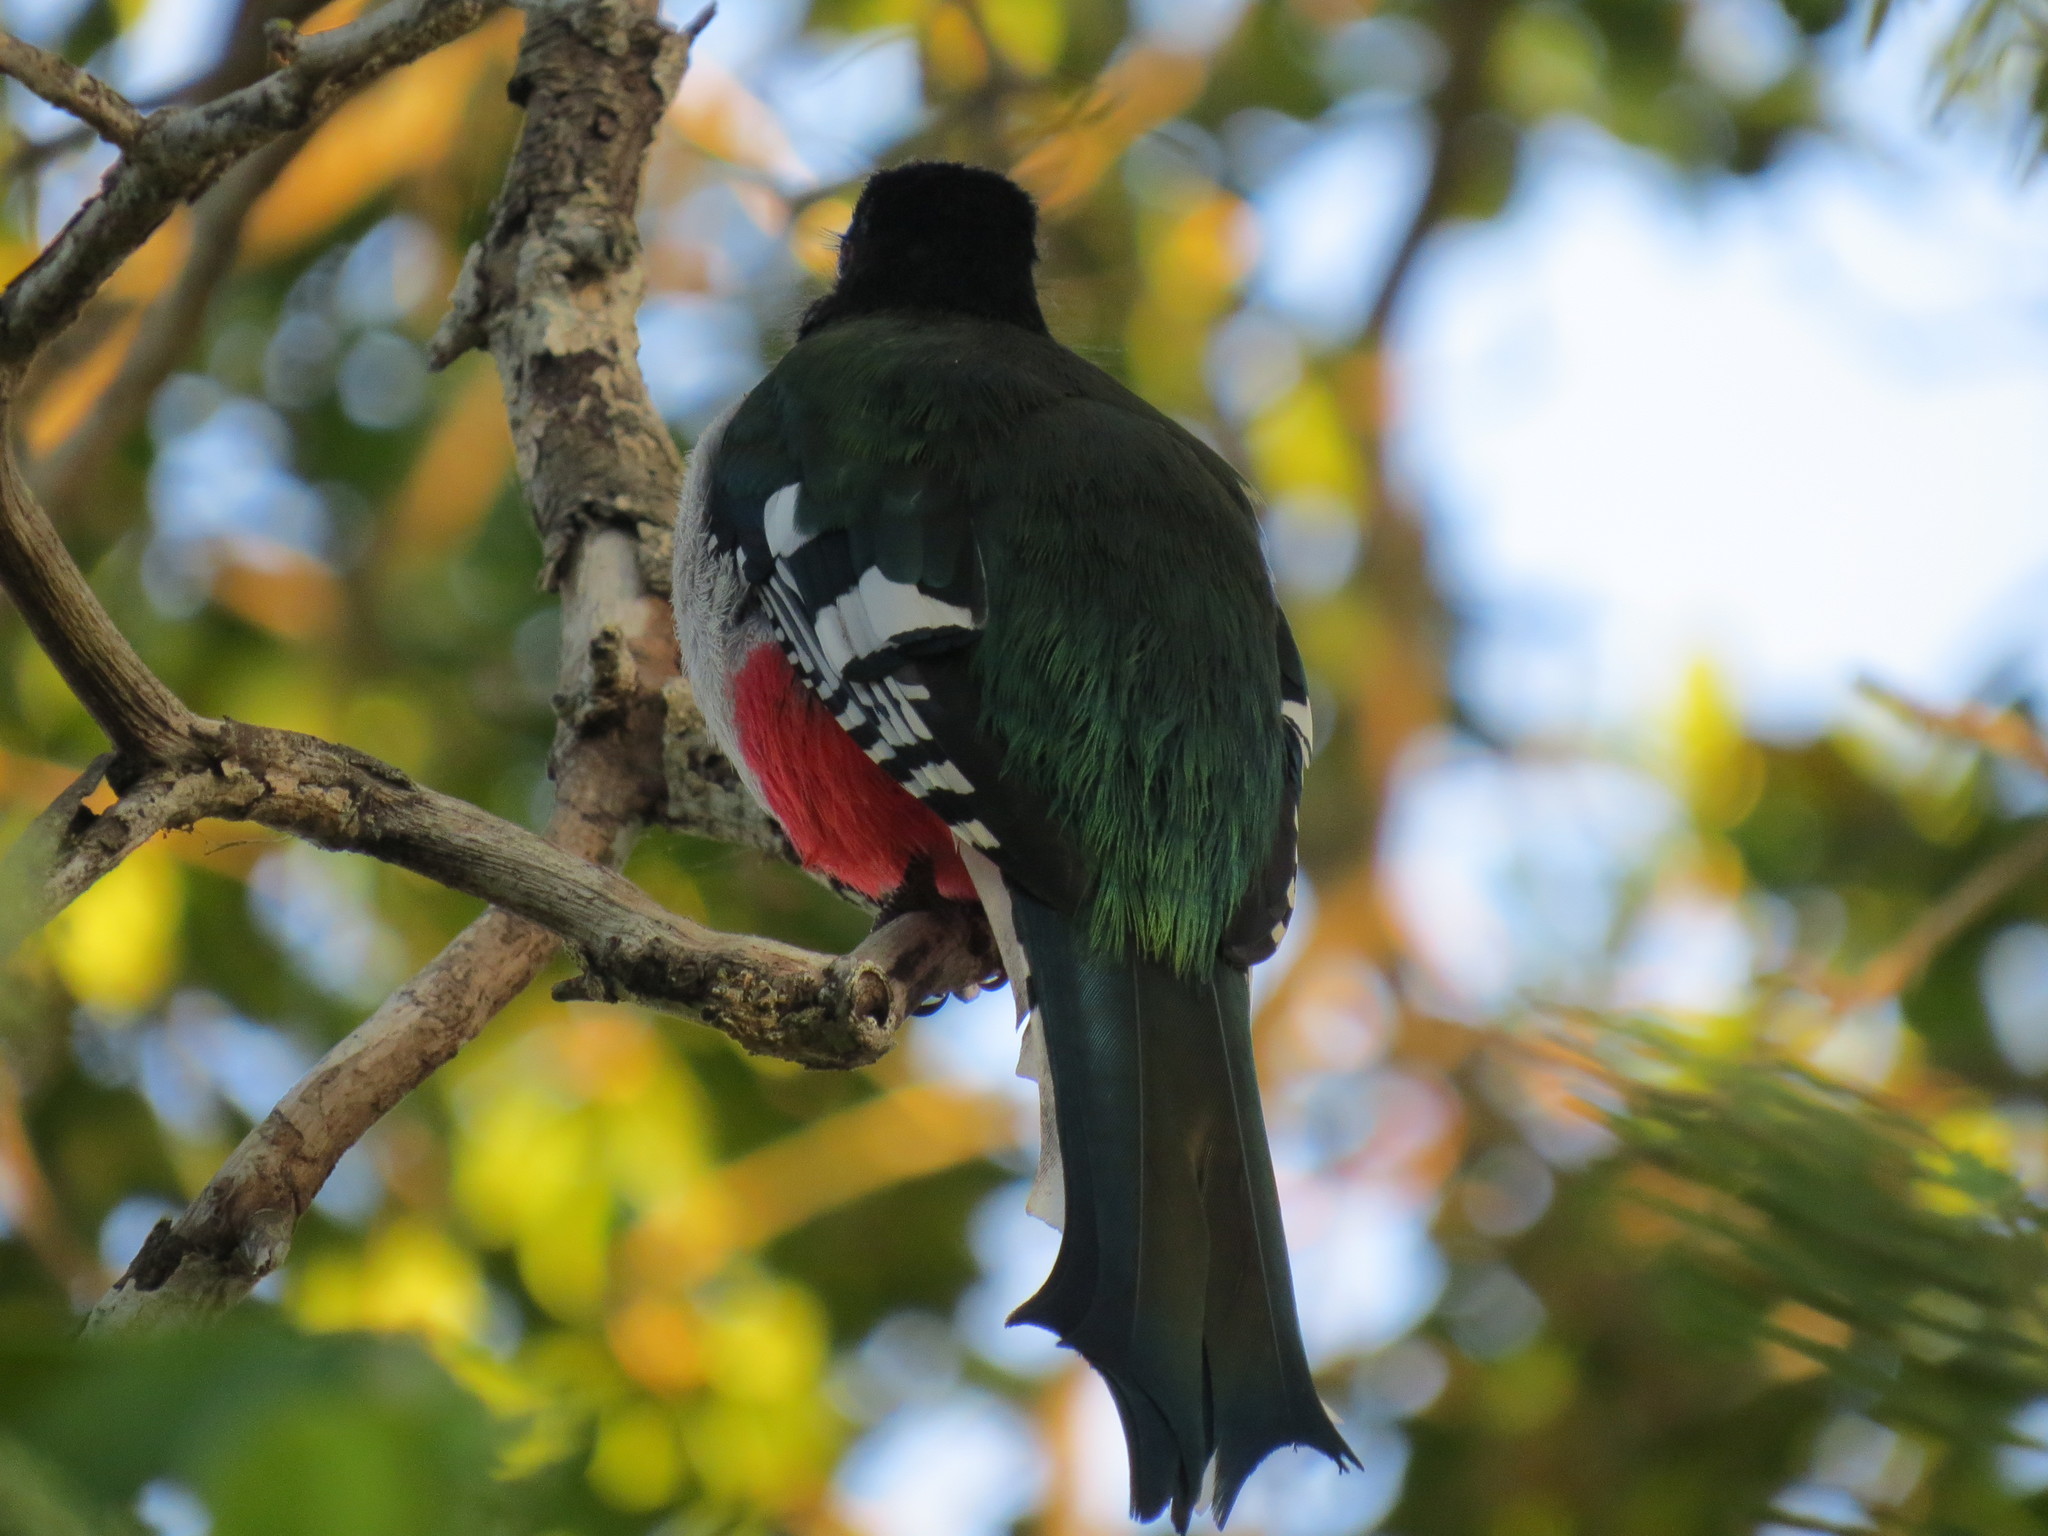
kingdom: Animalia
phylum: Chordata
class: Aves
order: Trogoniformes
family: Trogonidae
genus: Priotelus
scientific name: Priotelus temnurus
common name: Cuban trogon
